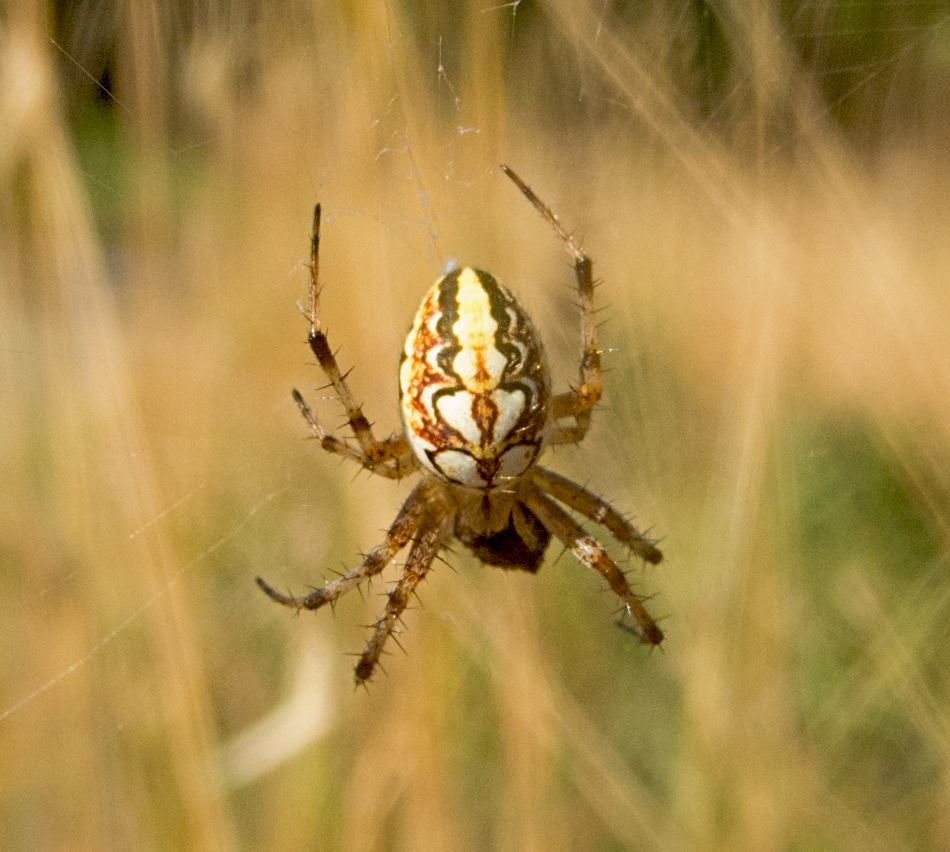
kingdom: Animalia
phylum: Arthropoda
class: Arachnida
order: Araneae
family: Araneidae
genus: Neoscona
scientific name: Neoscona adianta
